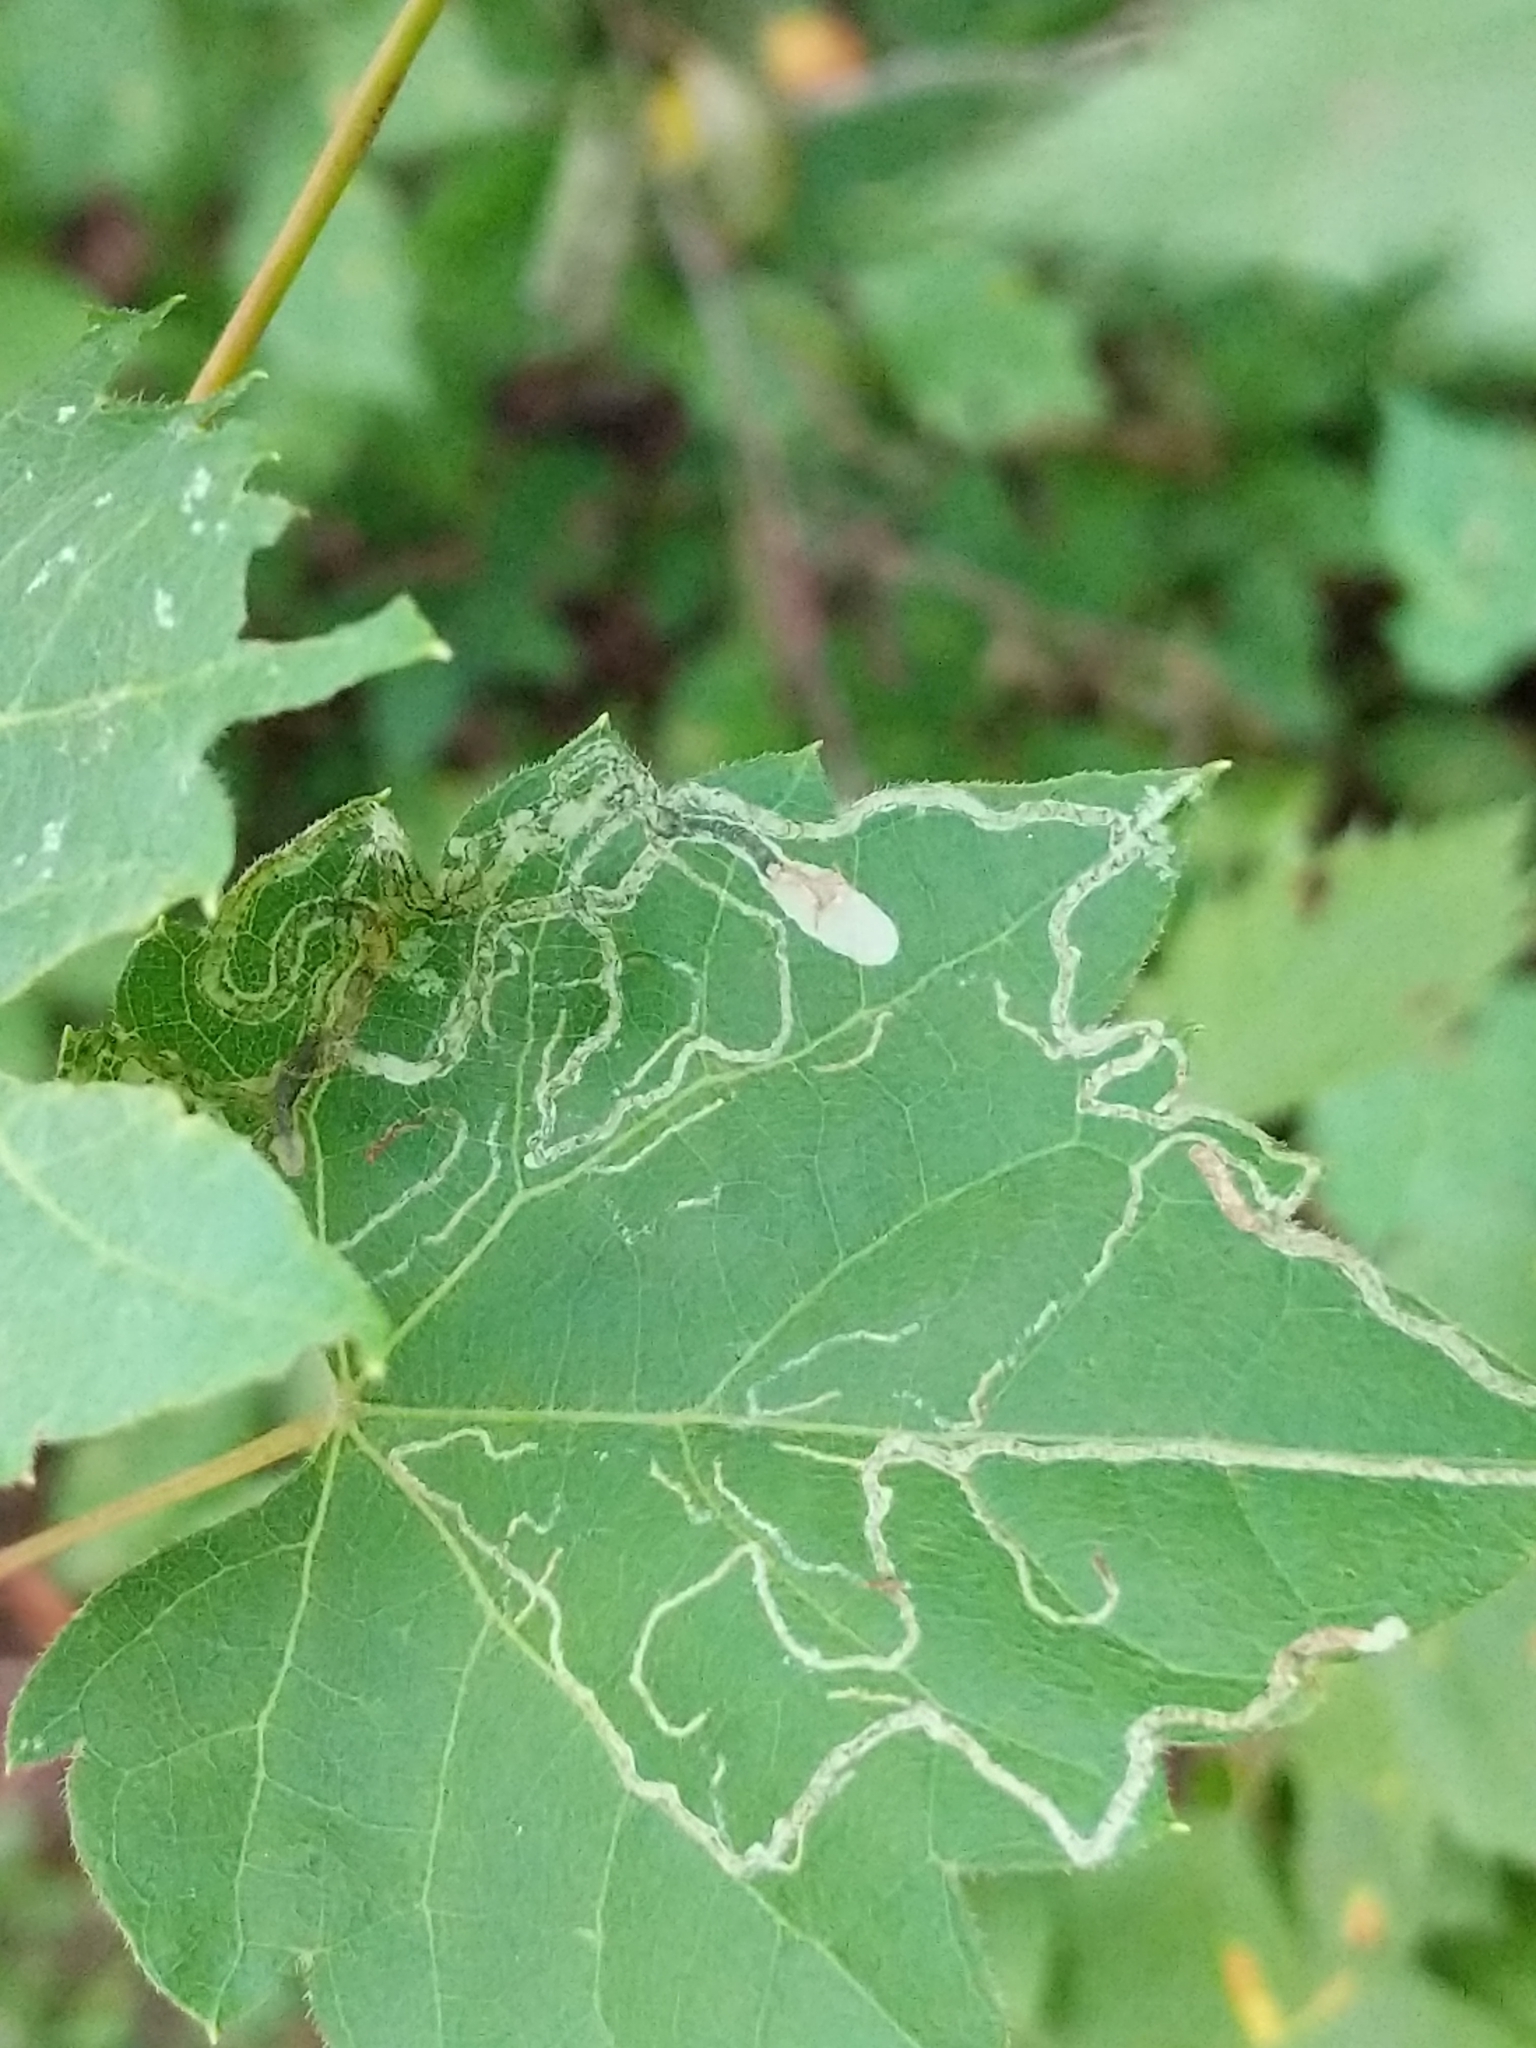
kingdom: Animalia
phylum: Arthropoda
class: Insecta
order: Lepidoptera
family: Gracillariidae
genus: Phyllocnistis
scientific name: Phyllocnistis vitifoliella
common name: Grape leaf-miner moth
